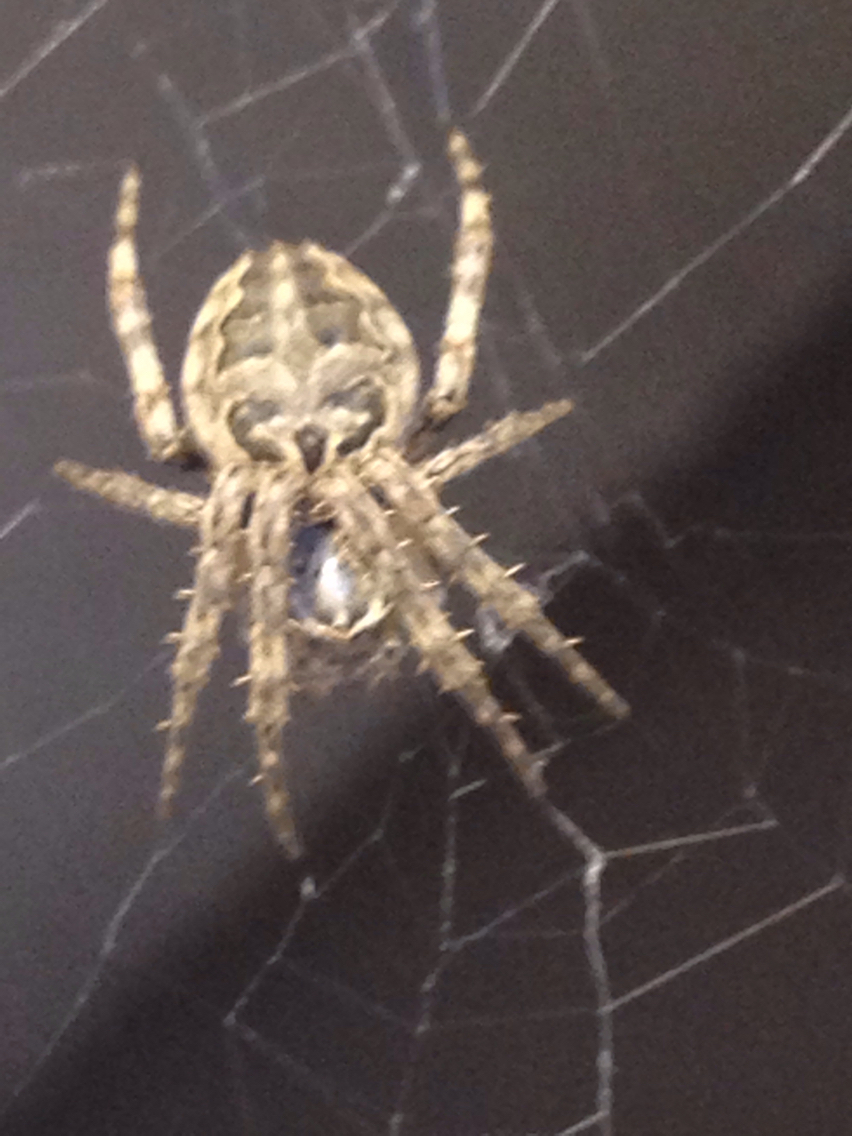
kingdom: Animalia
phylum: Arthropoda
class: Arachnida
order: Araneae
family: Araneidae
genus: Larinioides
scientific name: Larinioides sclopetarius
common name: Bridge orbweaver
